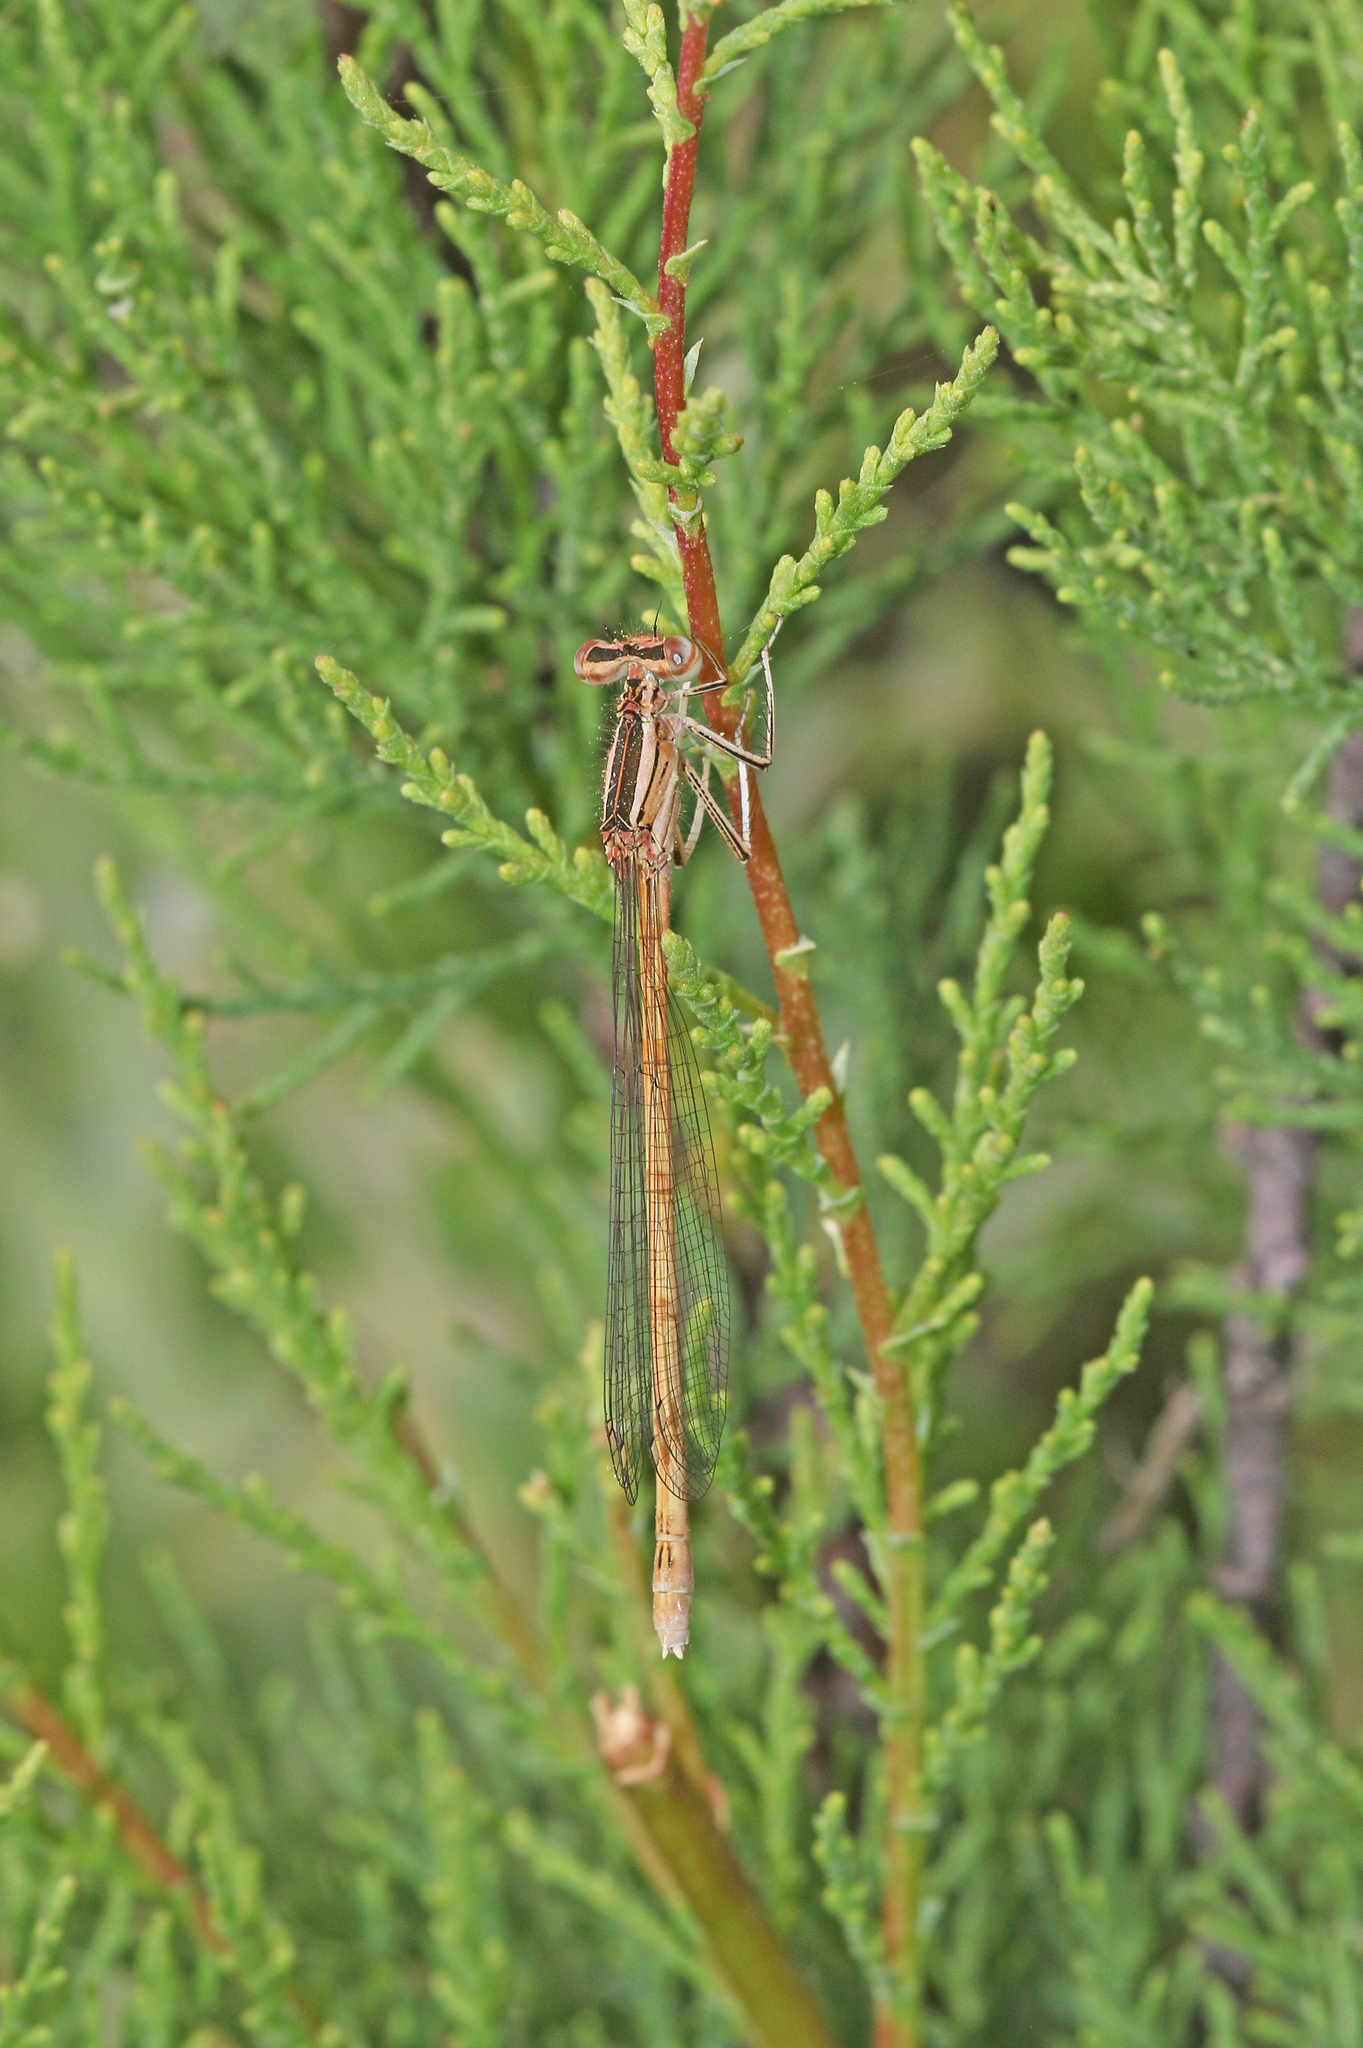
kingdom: Animalia
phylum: Arthropoda
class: Insecta
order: Odonata
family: Platycnemididae
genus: Platycnemis
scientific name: Platycnemis acutipennis
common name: Orange featherleg
